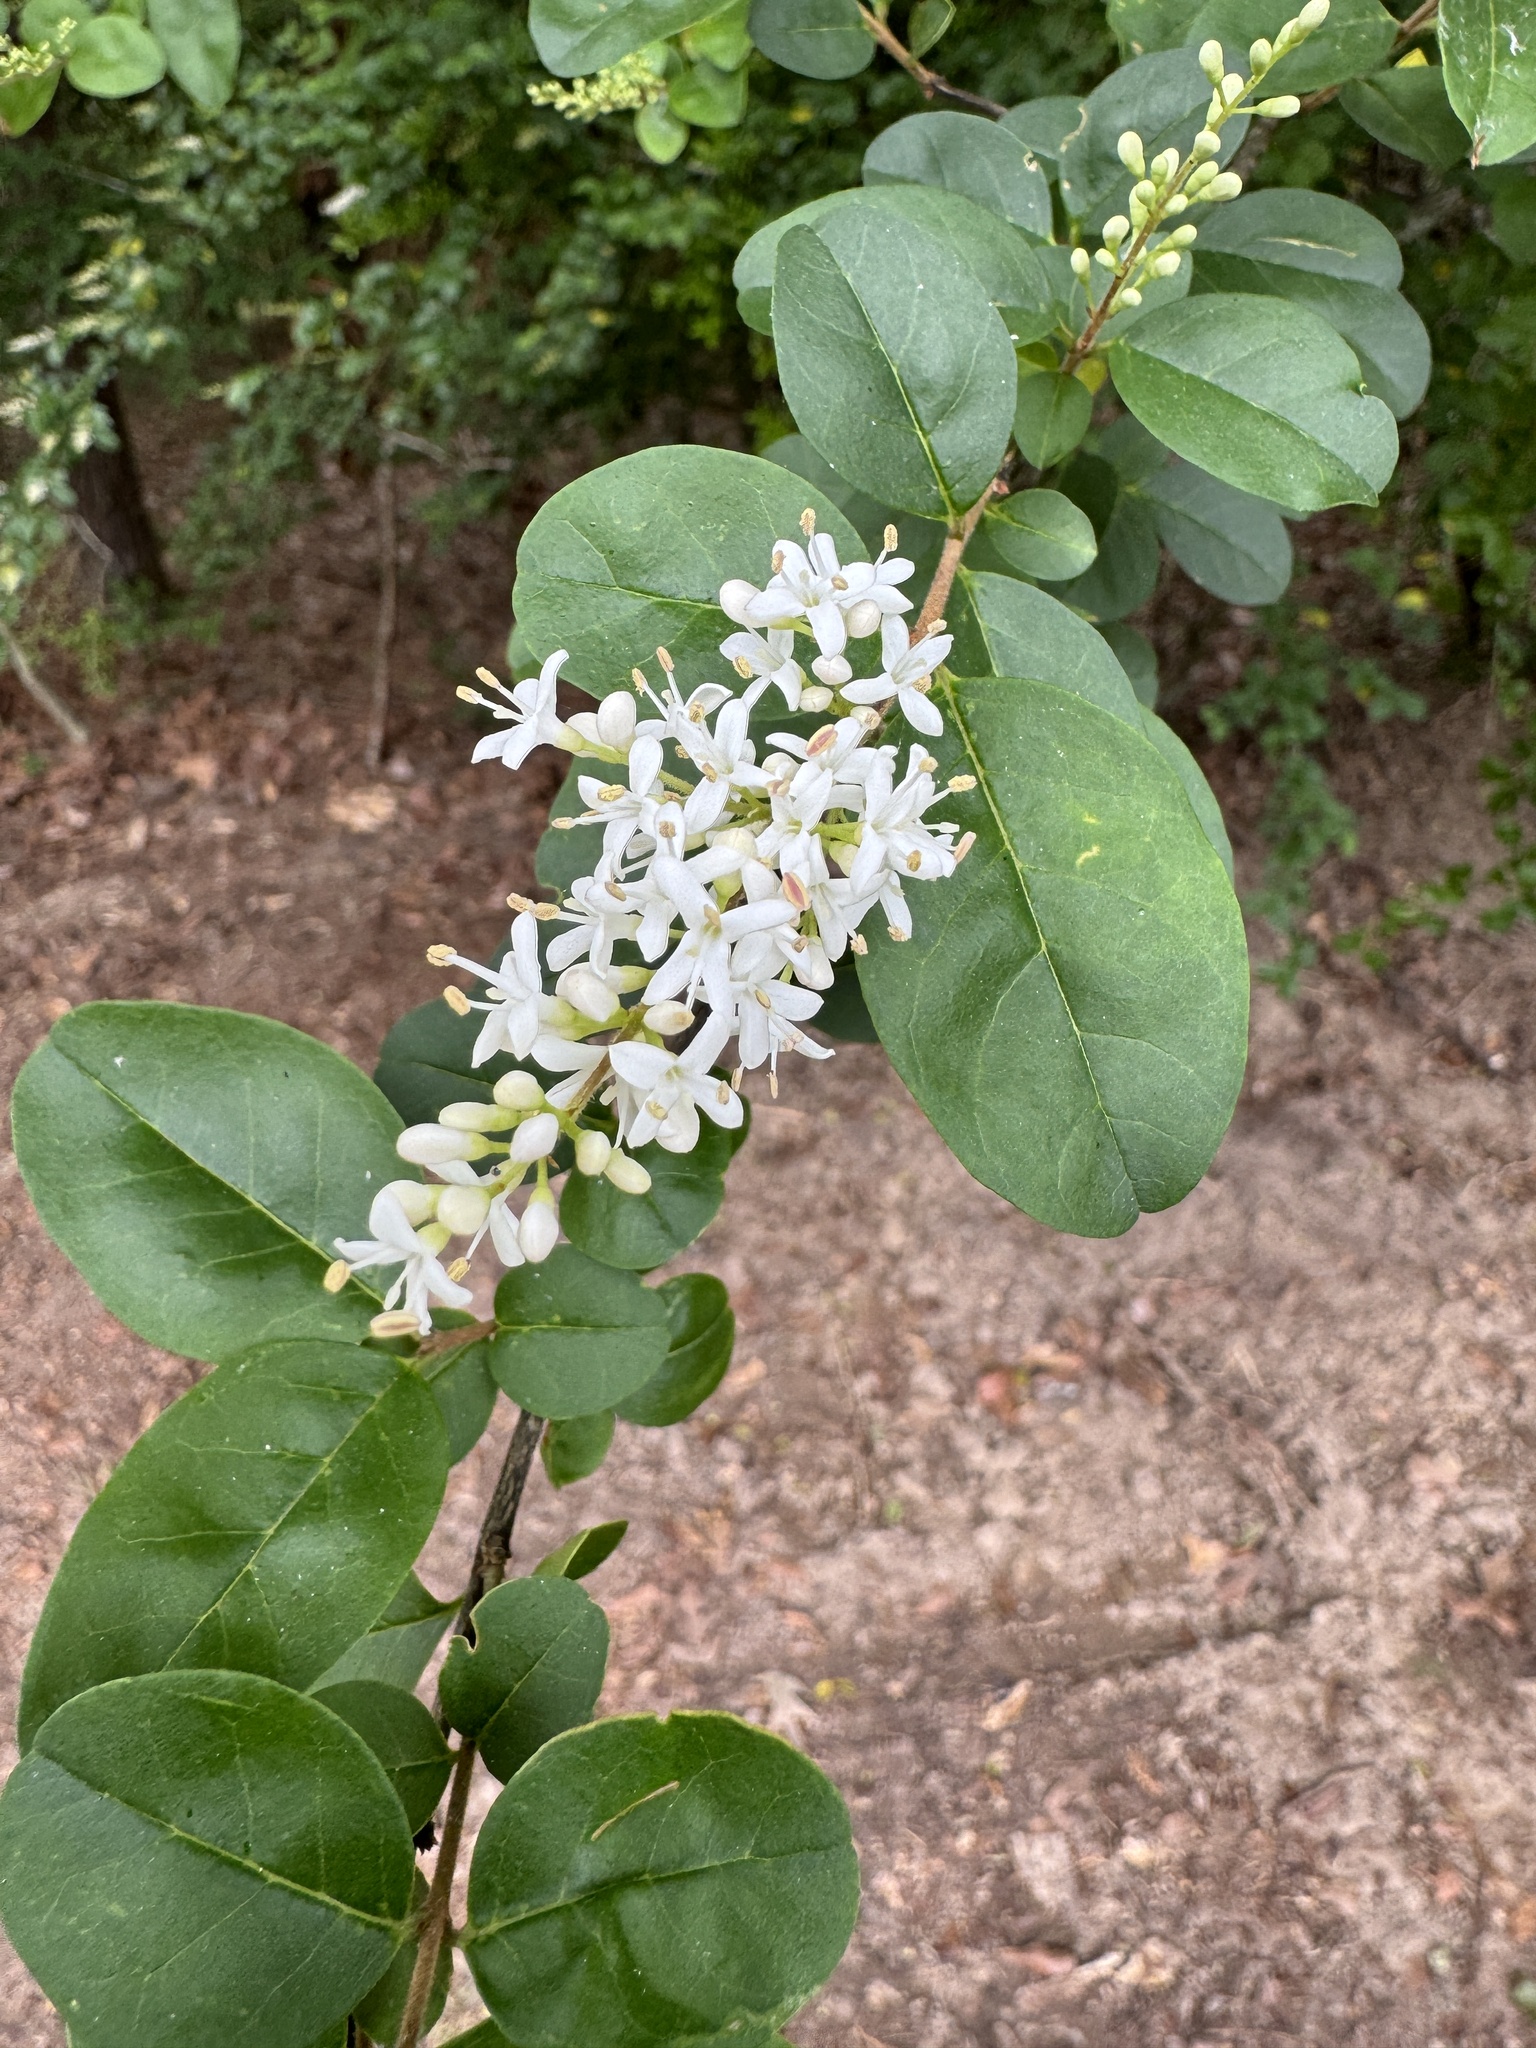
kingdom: Plantae
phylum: Tracheophyta
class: Magnoliopsida
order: Lamiales
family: Oleaceae
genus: Ligustrum
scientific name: Ligustrum sinense
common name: Chinese privet
